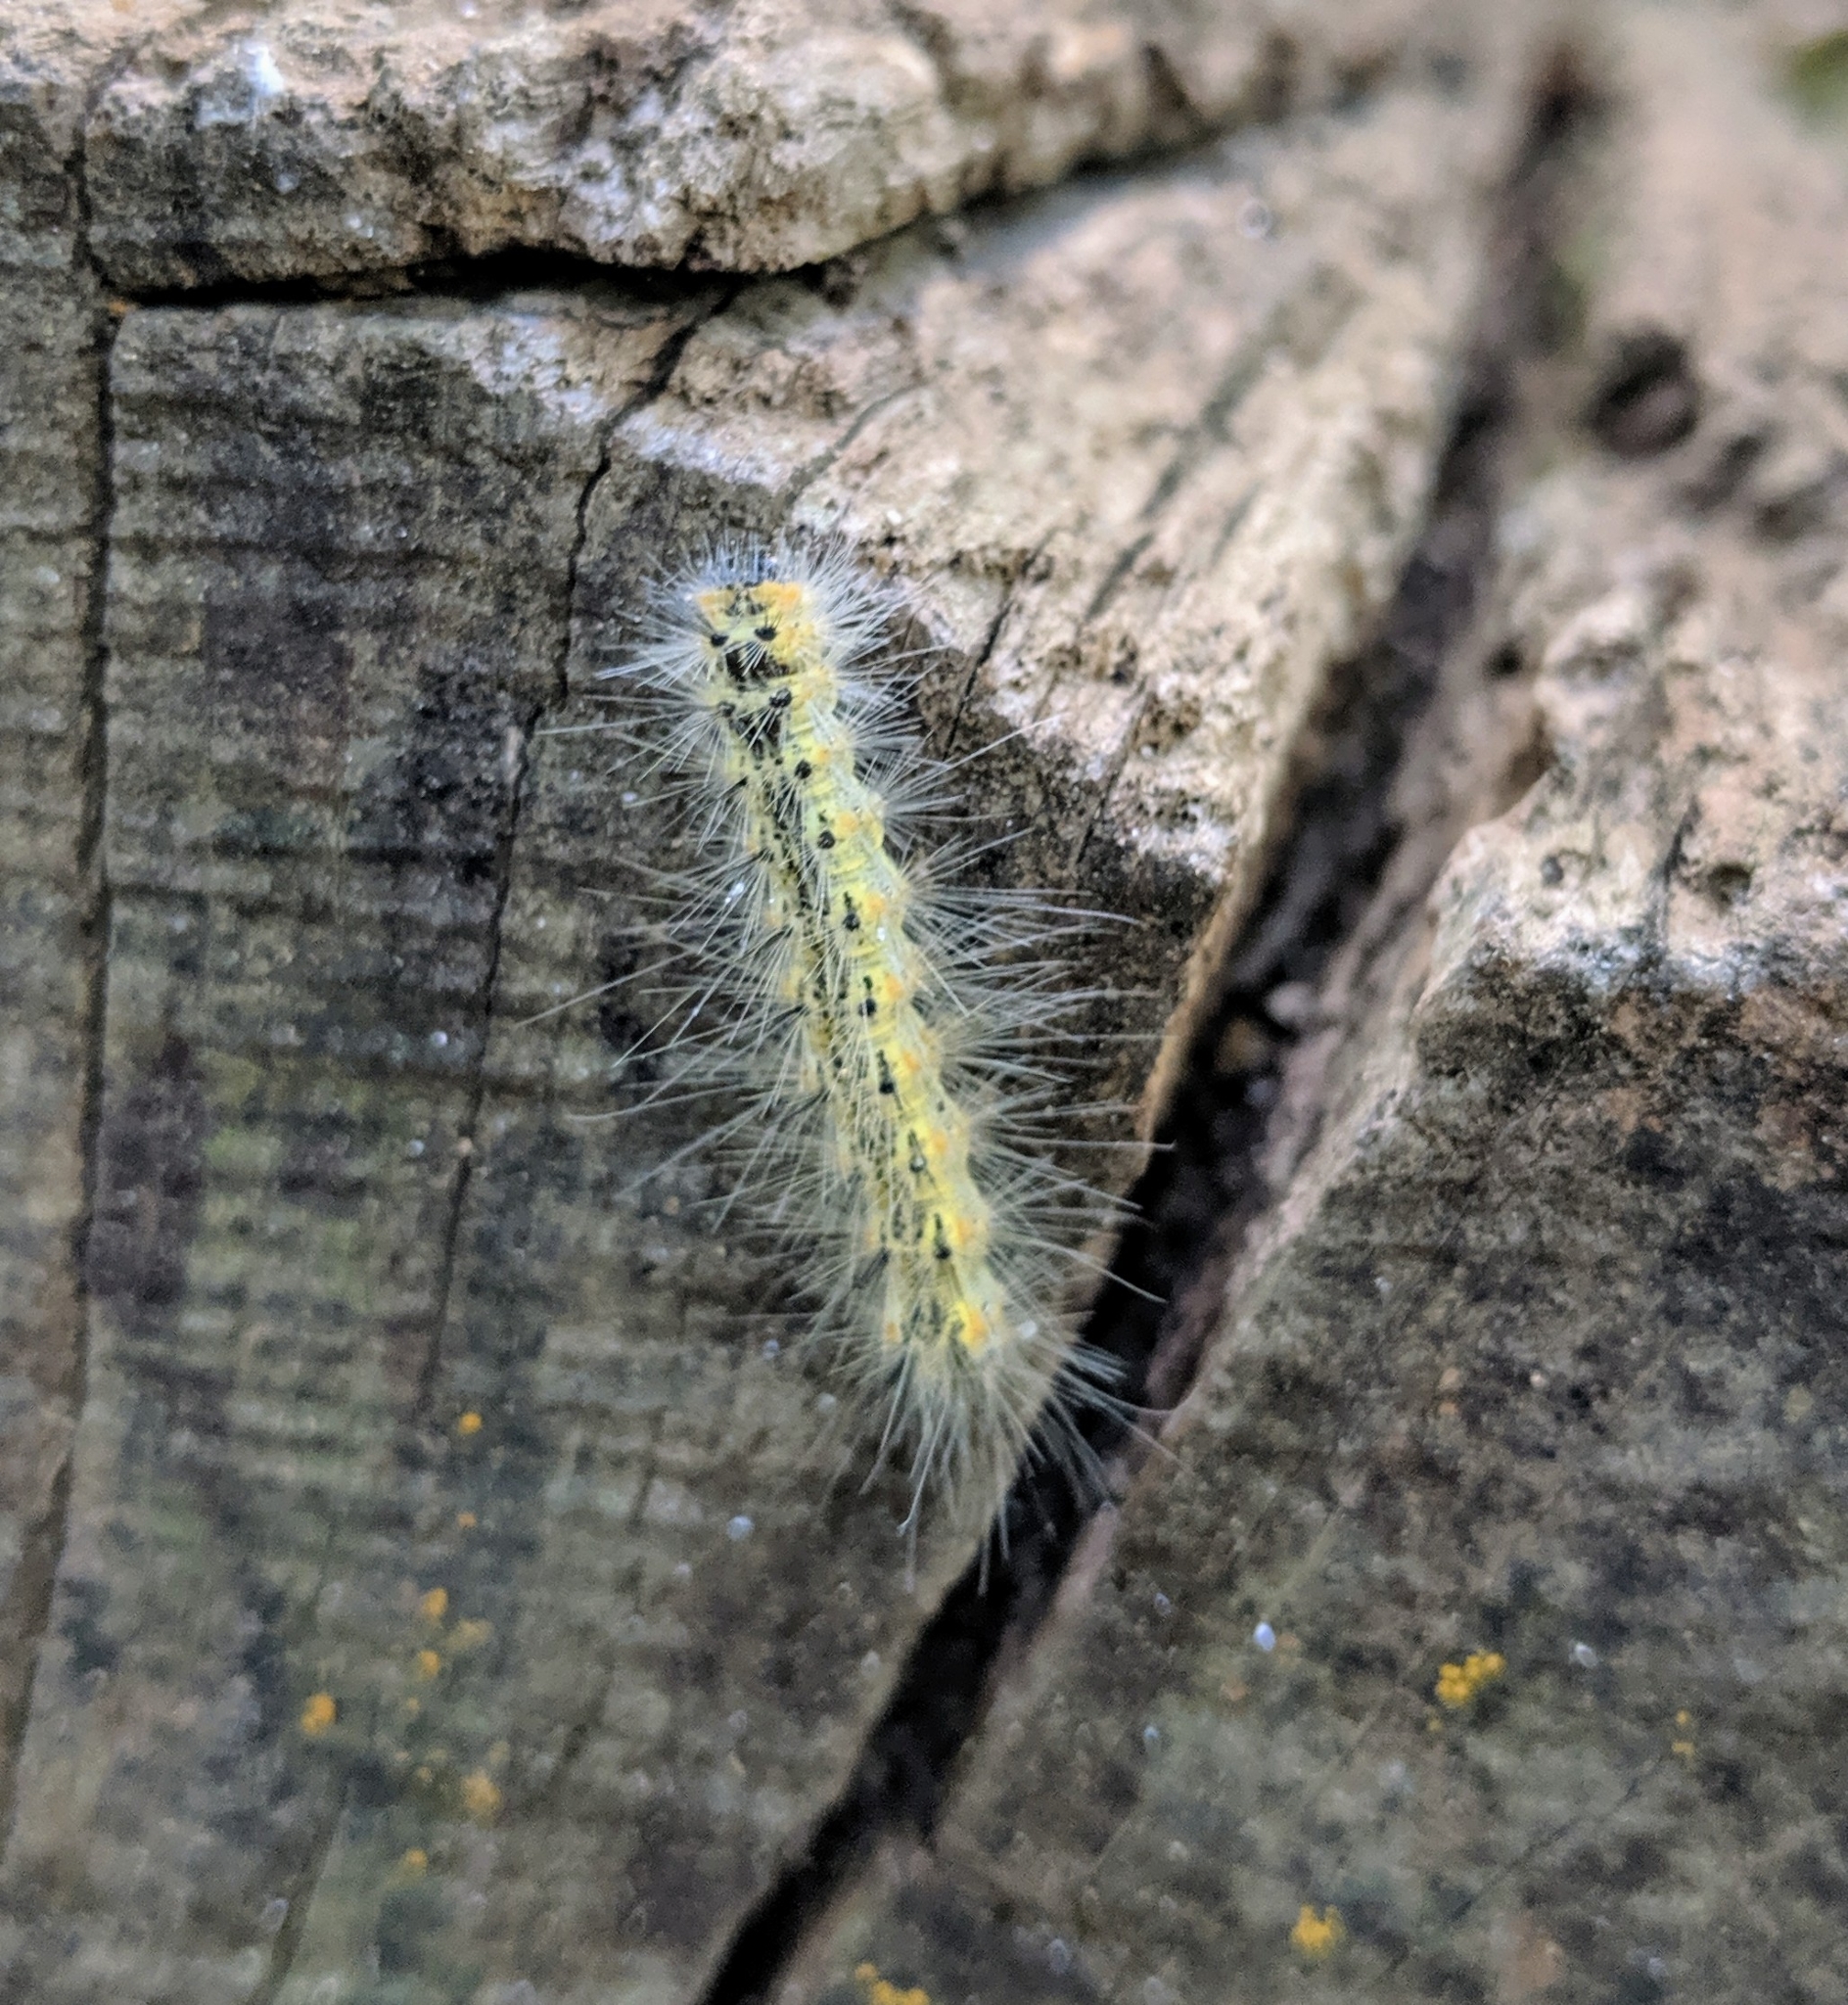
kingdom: Animalia
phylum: Arthropoda
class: Insecta
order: Lepidoptera
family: Erebidae
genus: Hyphantria
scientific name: Hyphantria cunea
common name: American white moth
